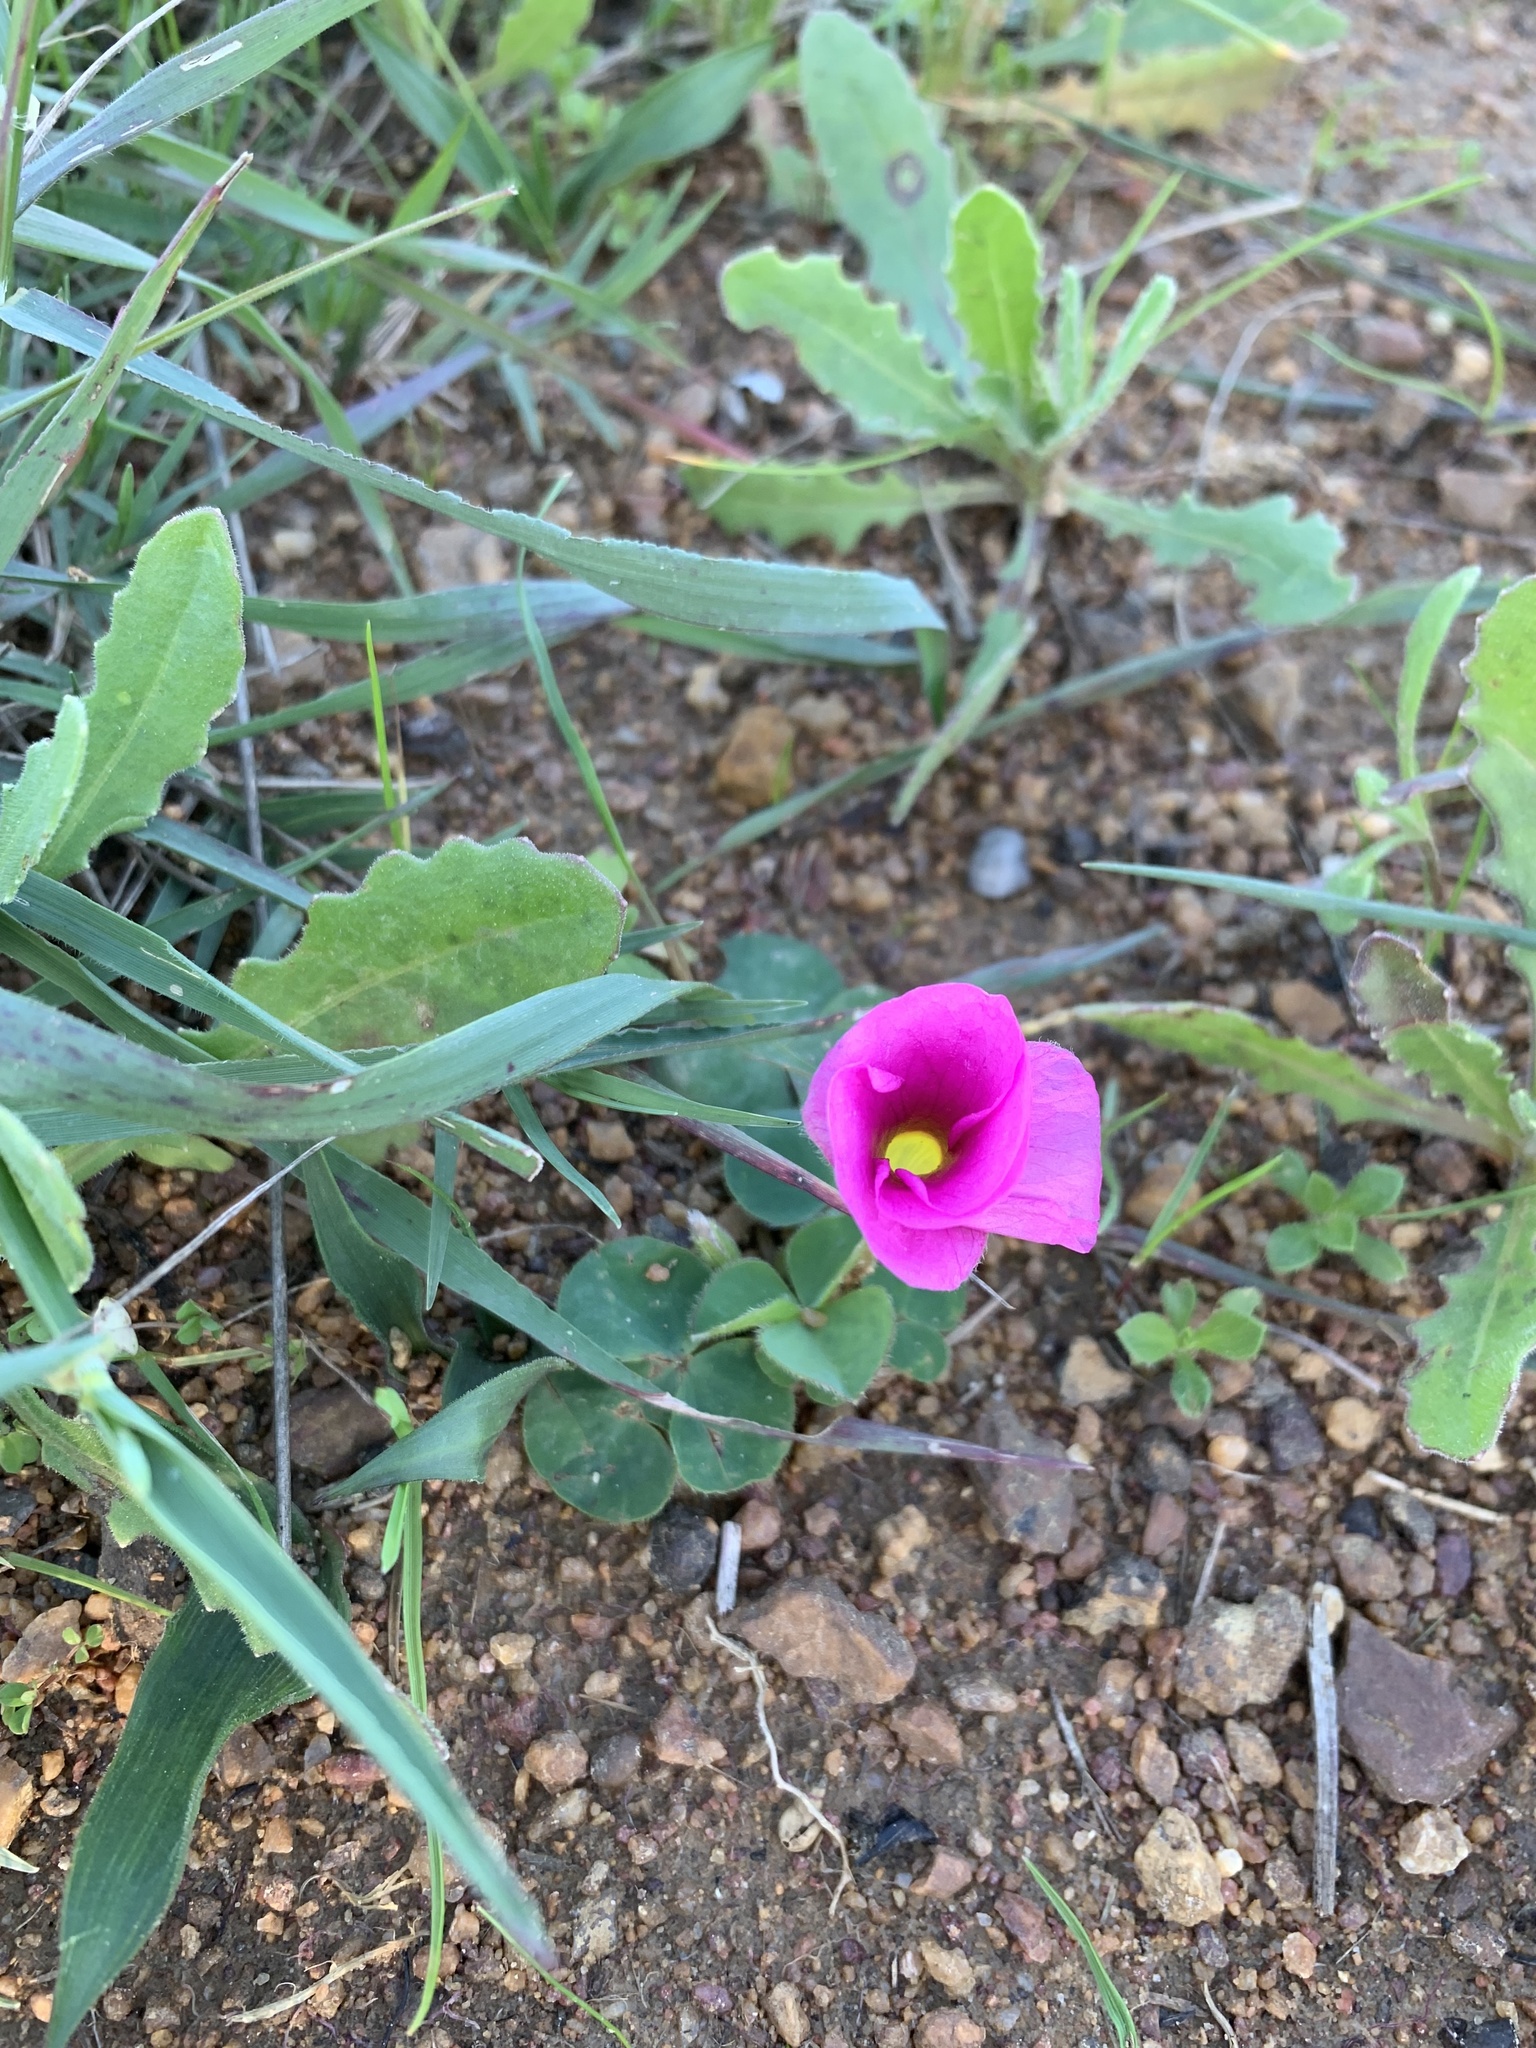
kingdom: Plantae
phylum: Tracheophyta
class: Magnoliopsida
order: Oxalidales
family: Oxalidaceae
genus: Oxalis
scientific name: Oxalis purpurea
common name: Purple woodsorrel
